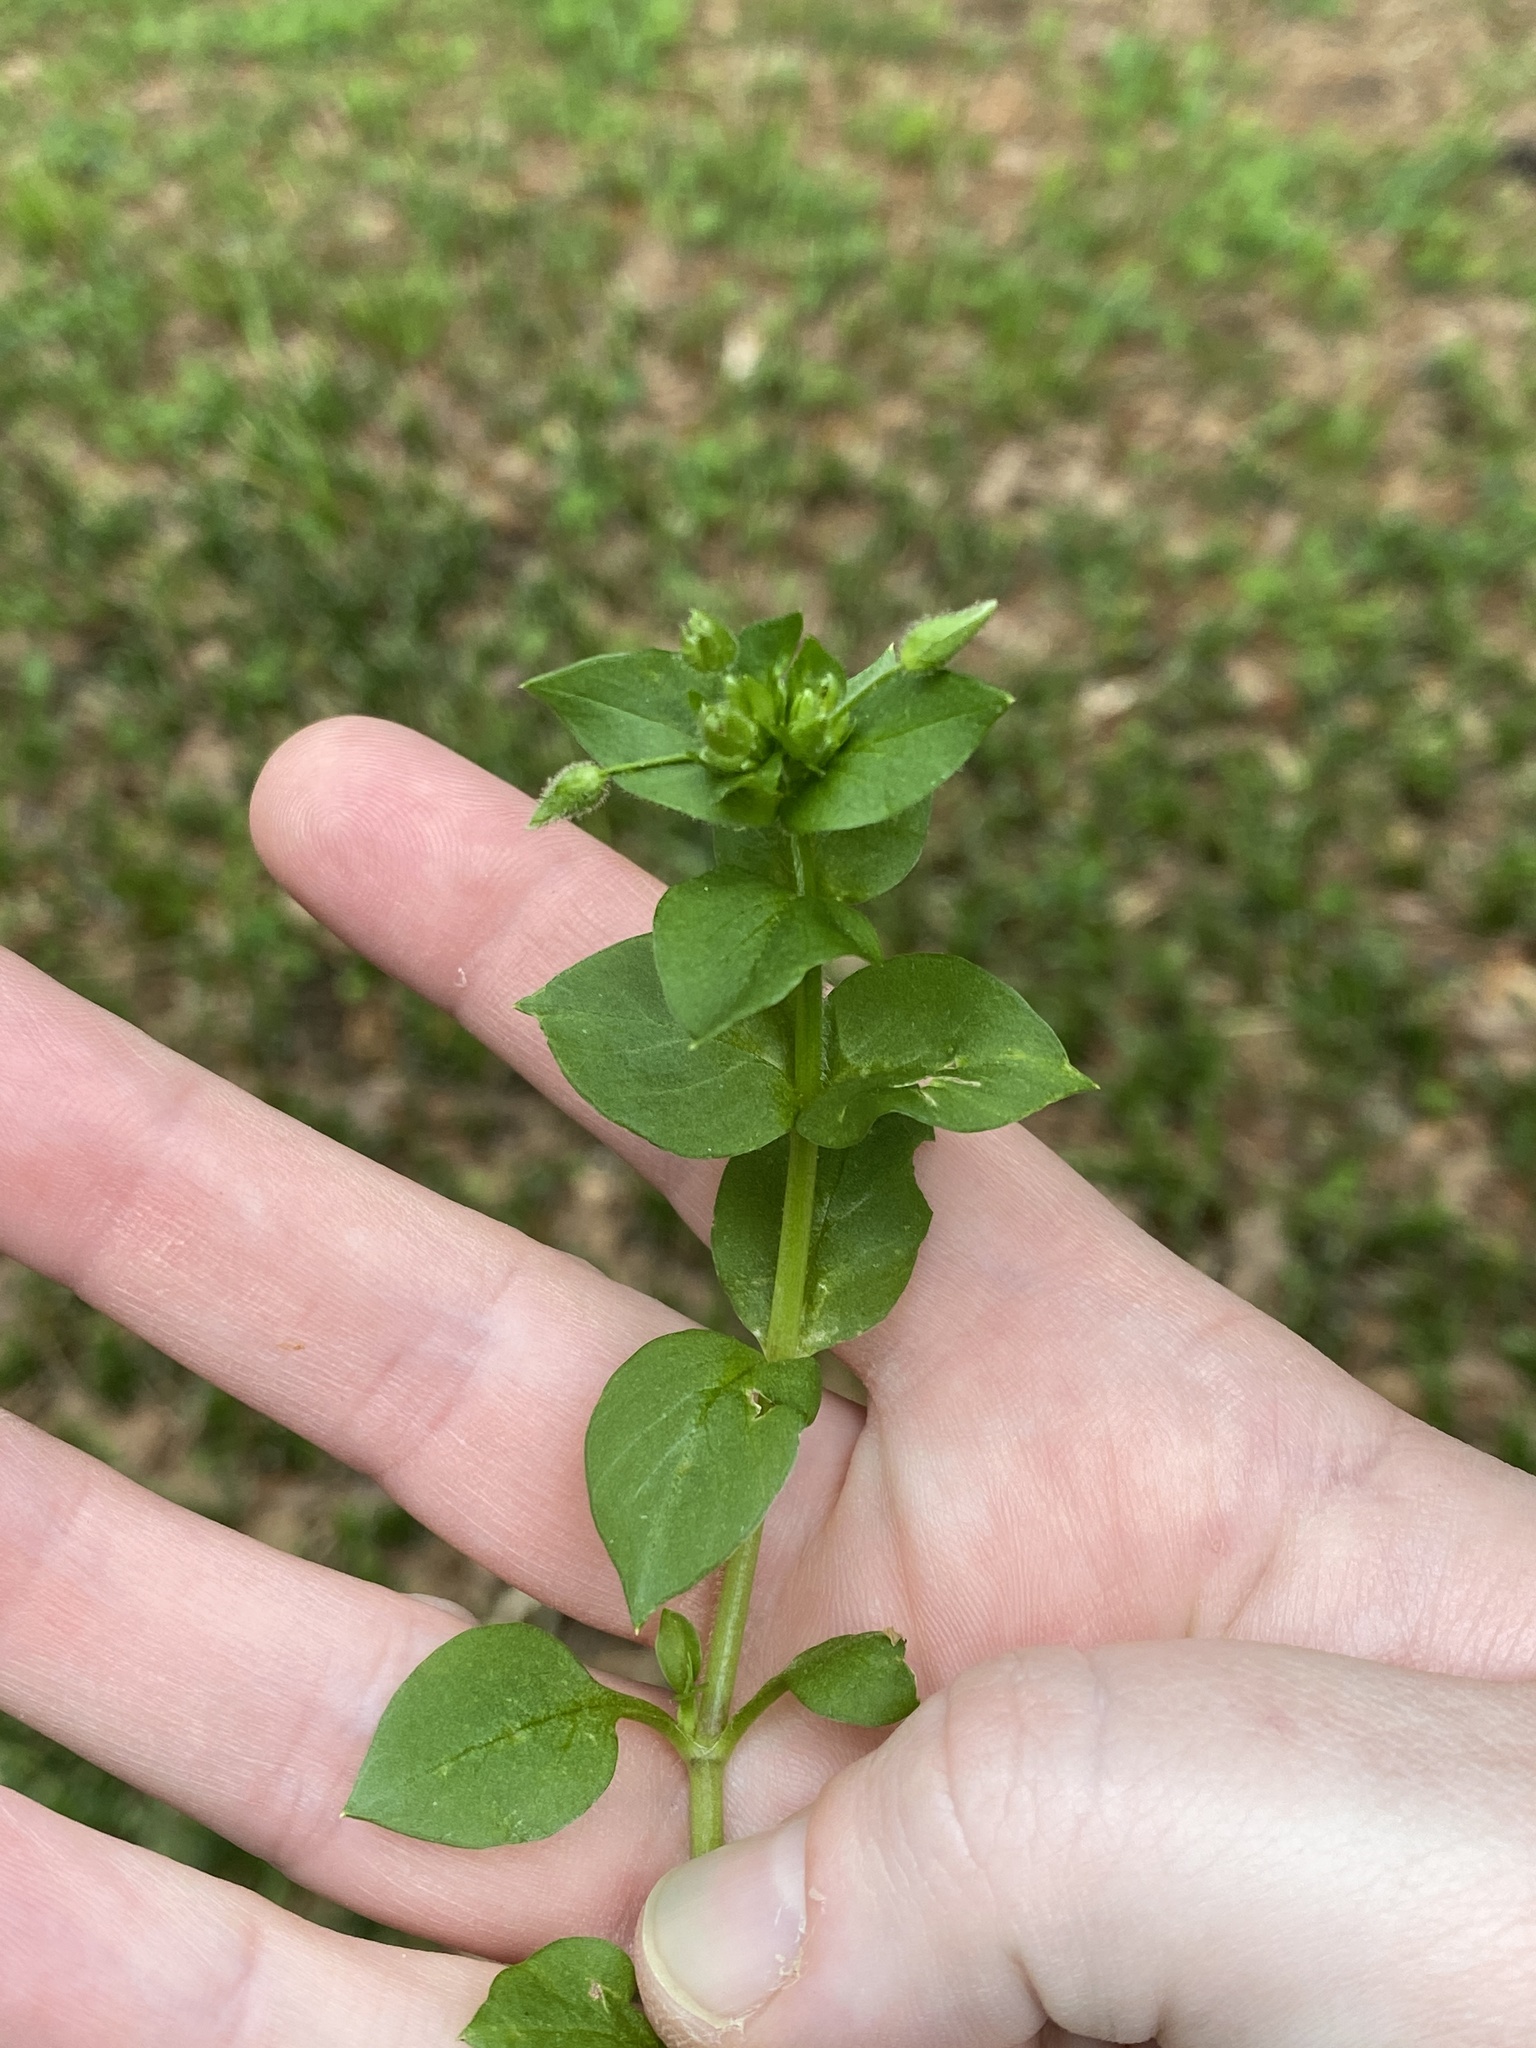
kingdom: Plantae
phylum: Tracheophyta
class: Magnoliopsida
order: Caryophyllales
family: Caryophyllaceae
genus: Stellaria
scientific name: Stellaria media
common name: Common chickweed
